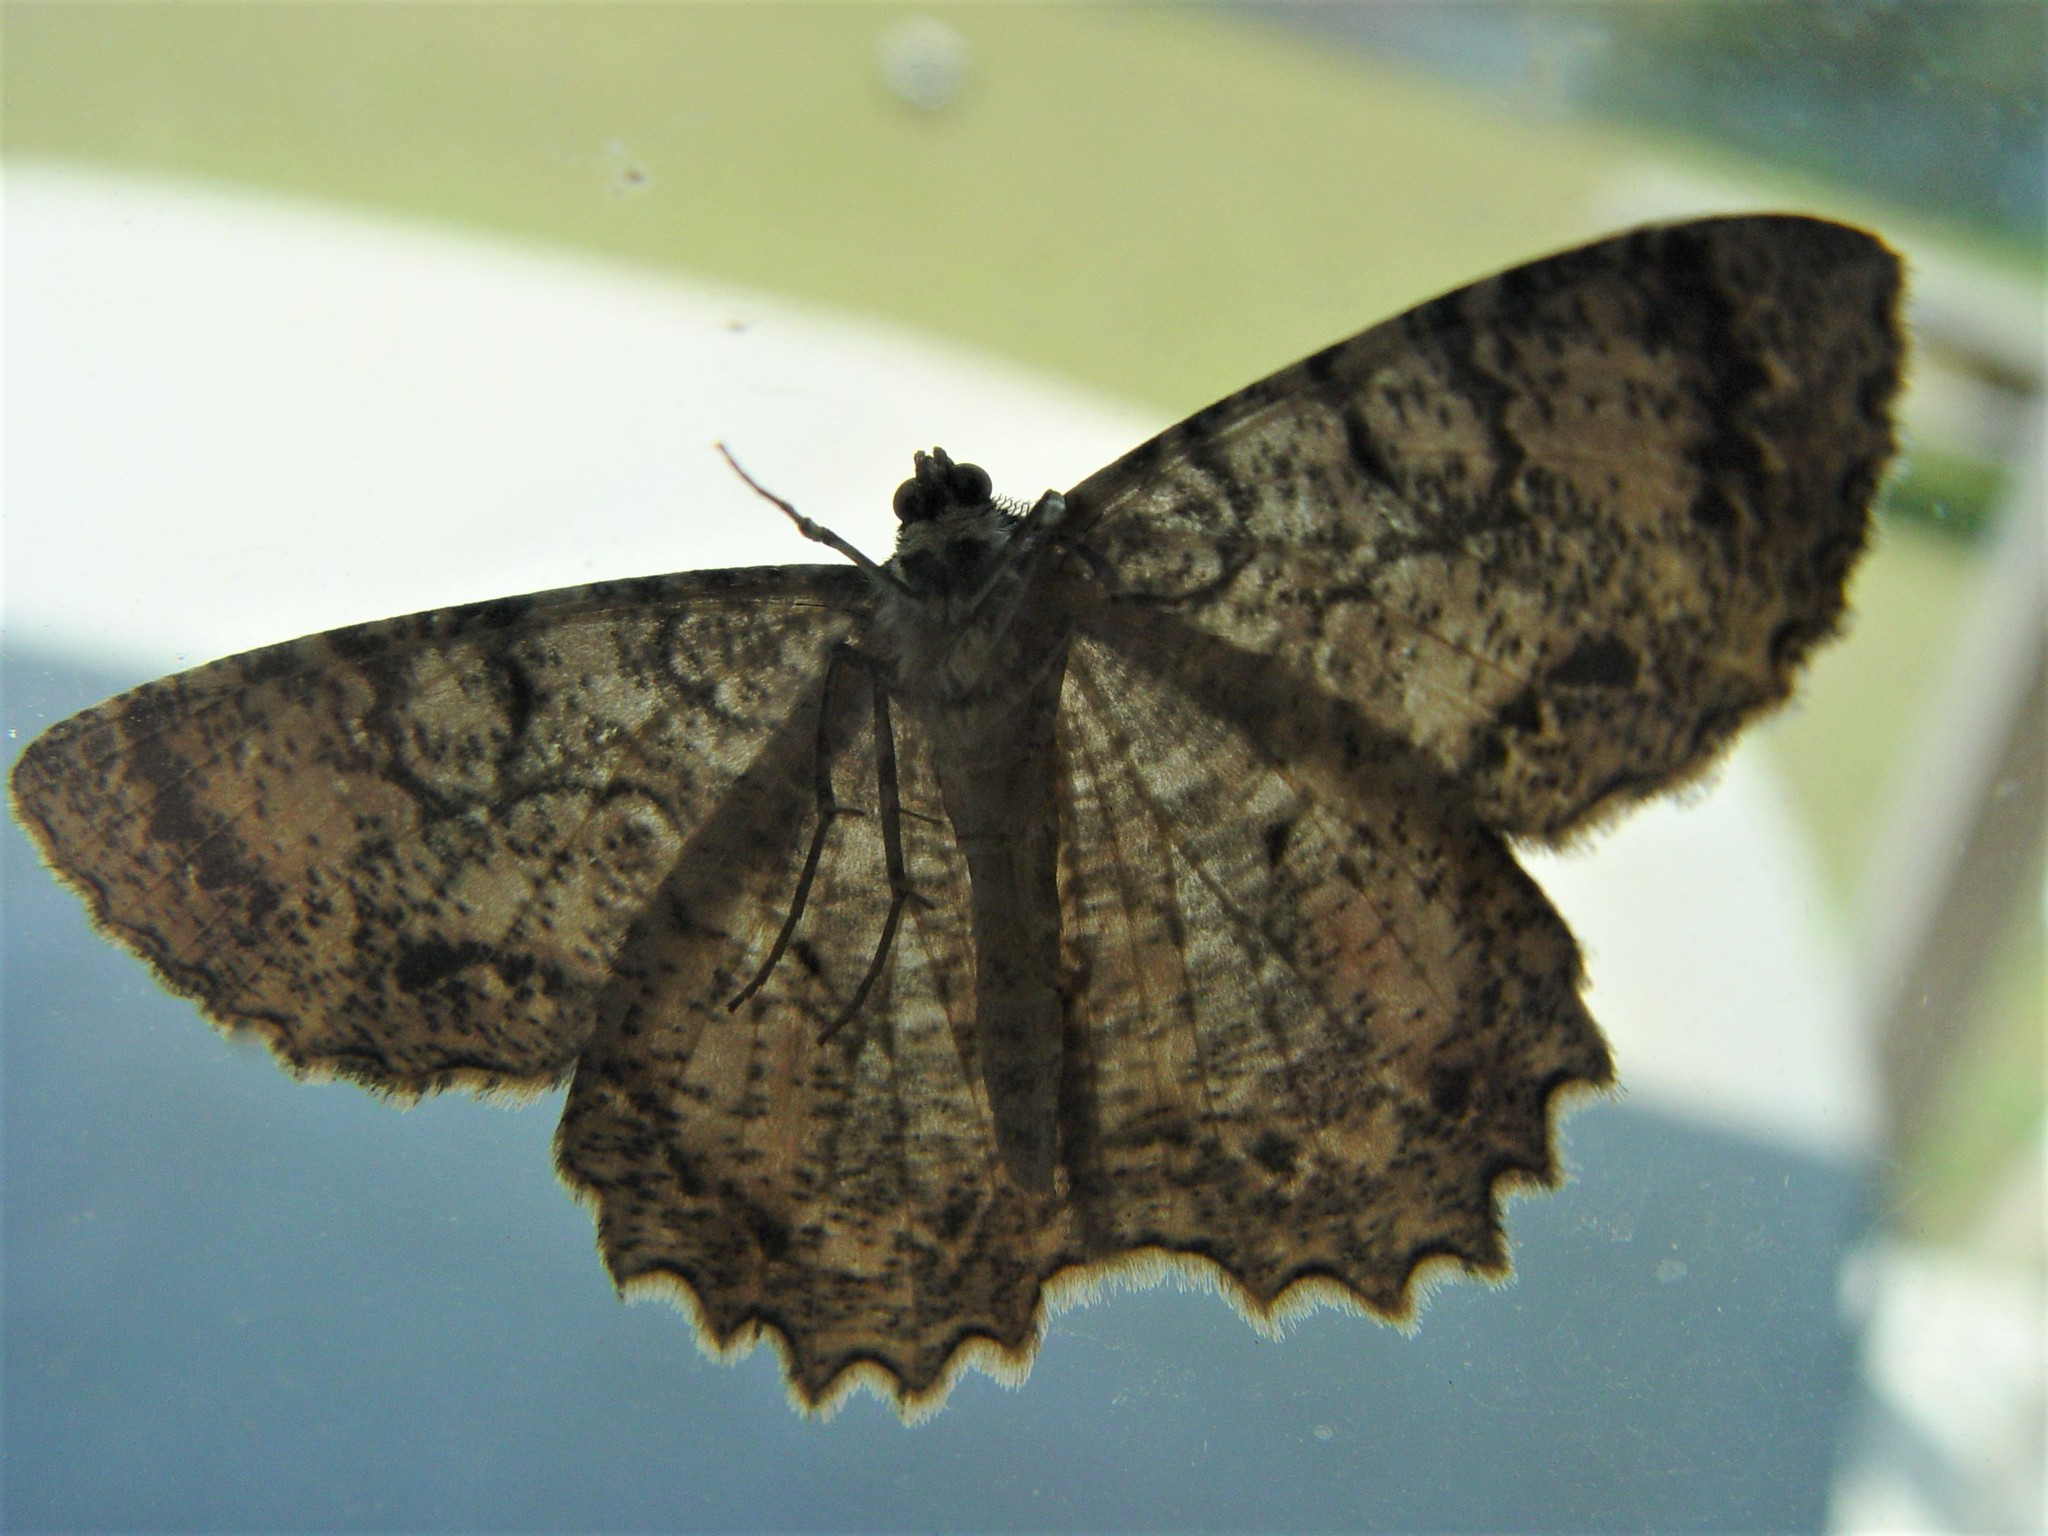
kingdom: Animalia
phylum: Arthropoda
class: Insecta
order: Lepidoptera
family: Geometridae
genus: Epimecis
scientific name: Epimecis hortaria
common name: Tulip-tree beauty
